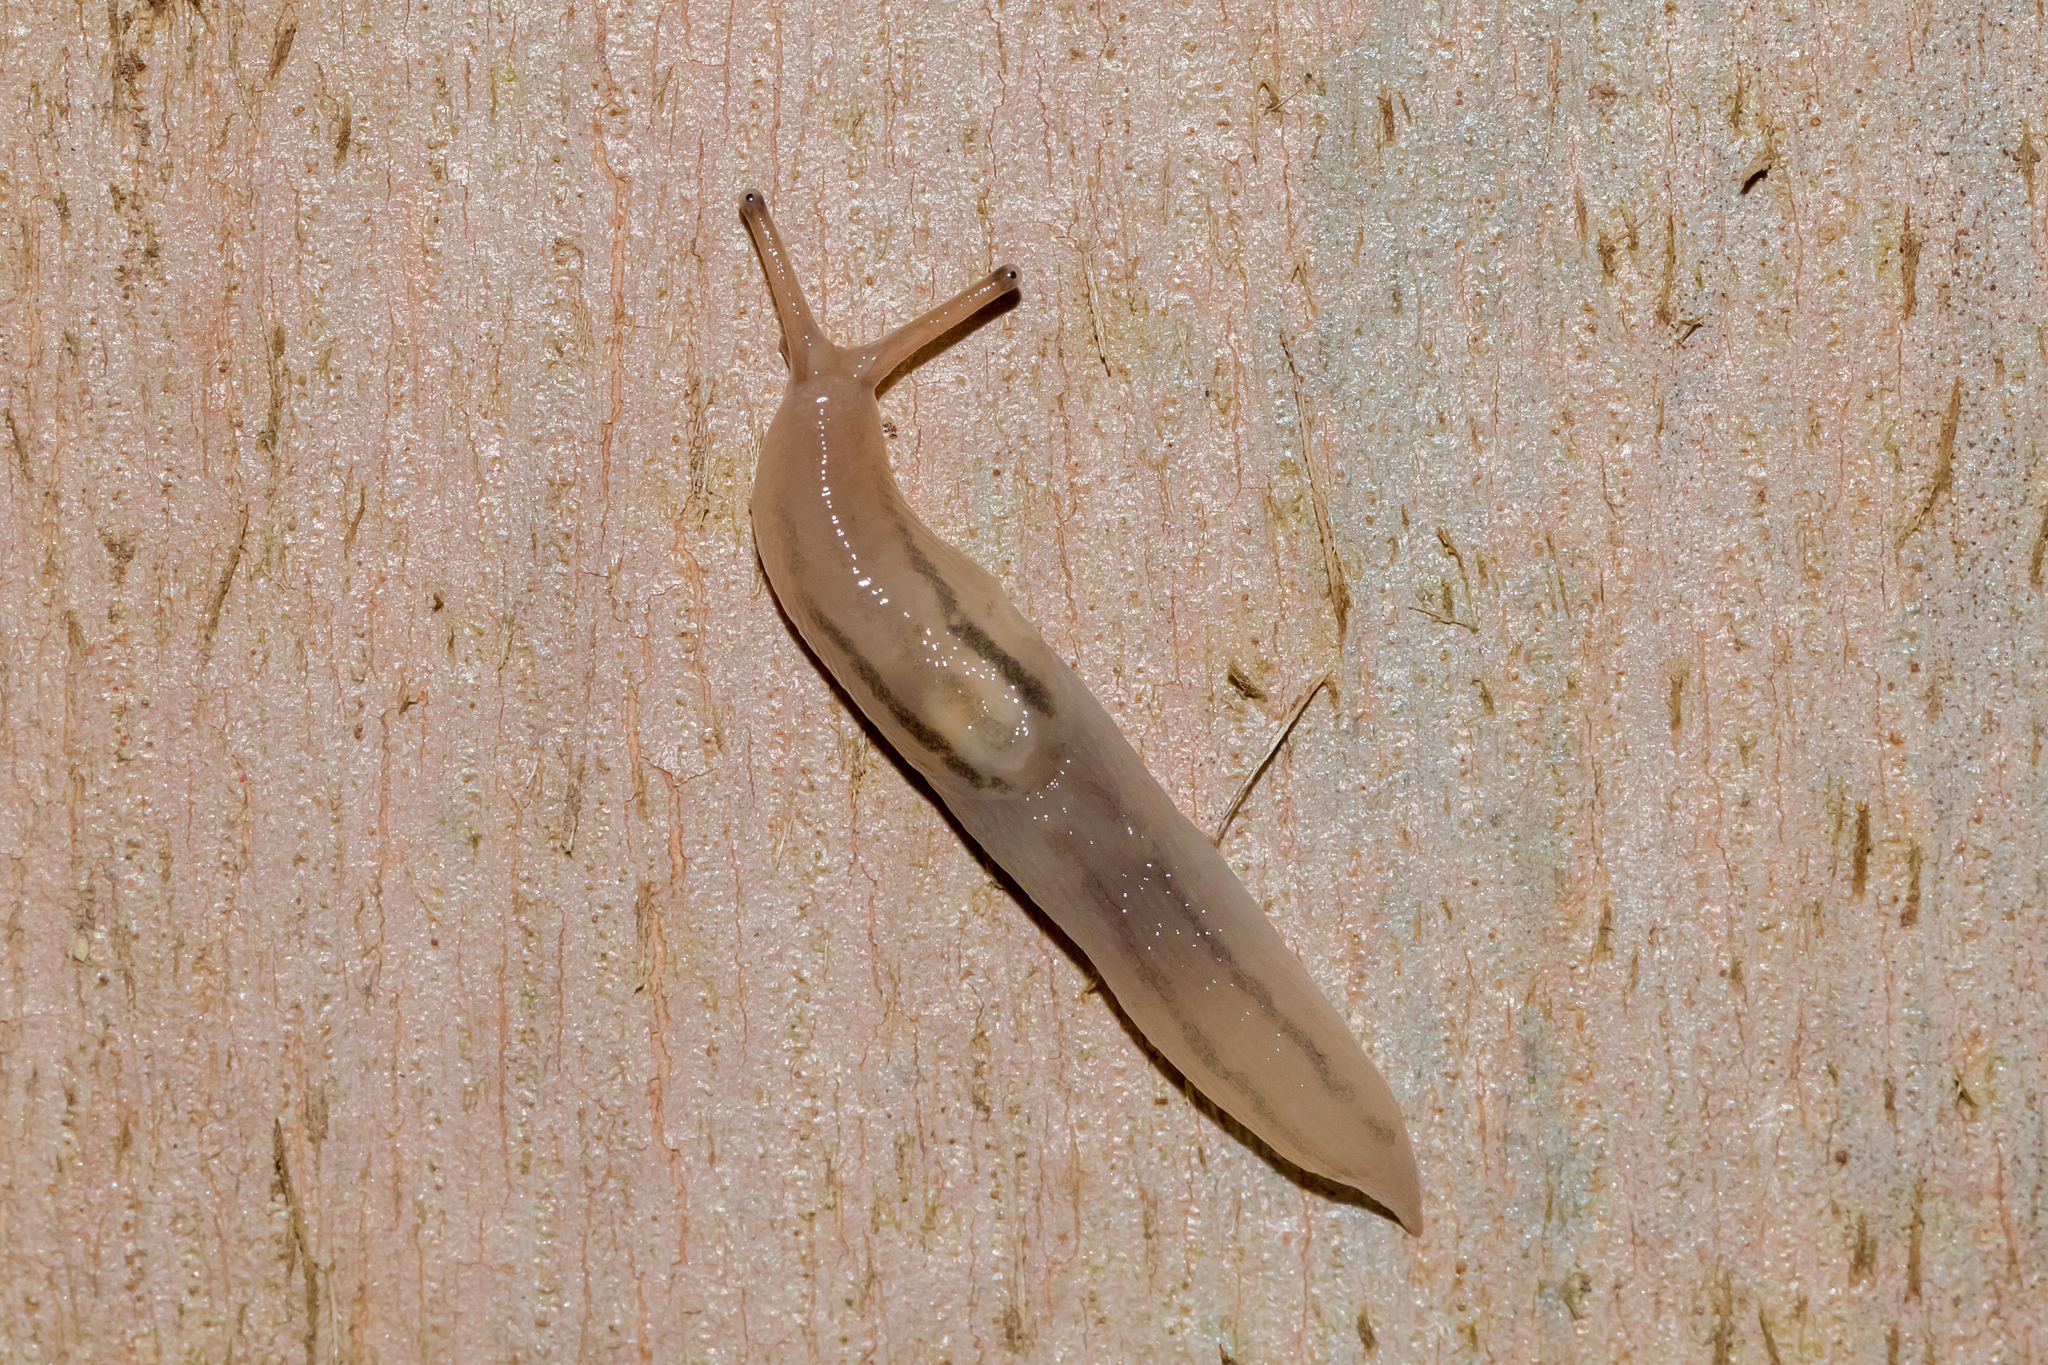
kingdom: Animalia
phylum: Mollusca
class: Gastropoda
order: Stylommatophora
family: Limacidae
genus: Ambigolimax
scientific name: Ambigolimax
